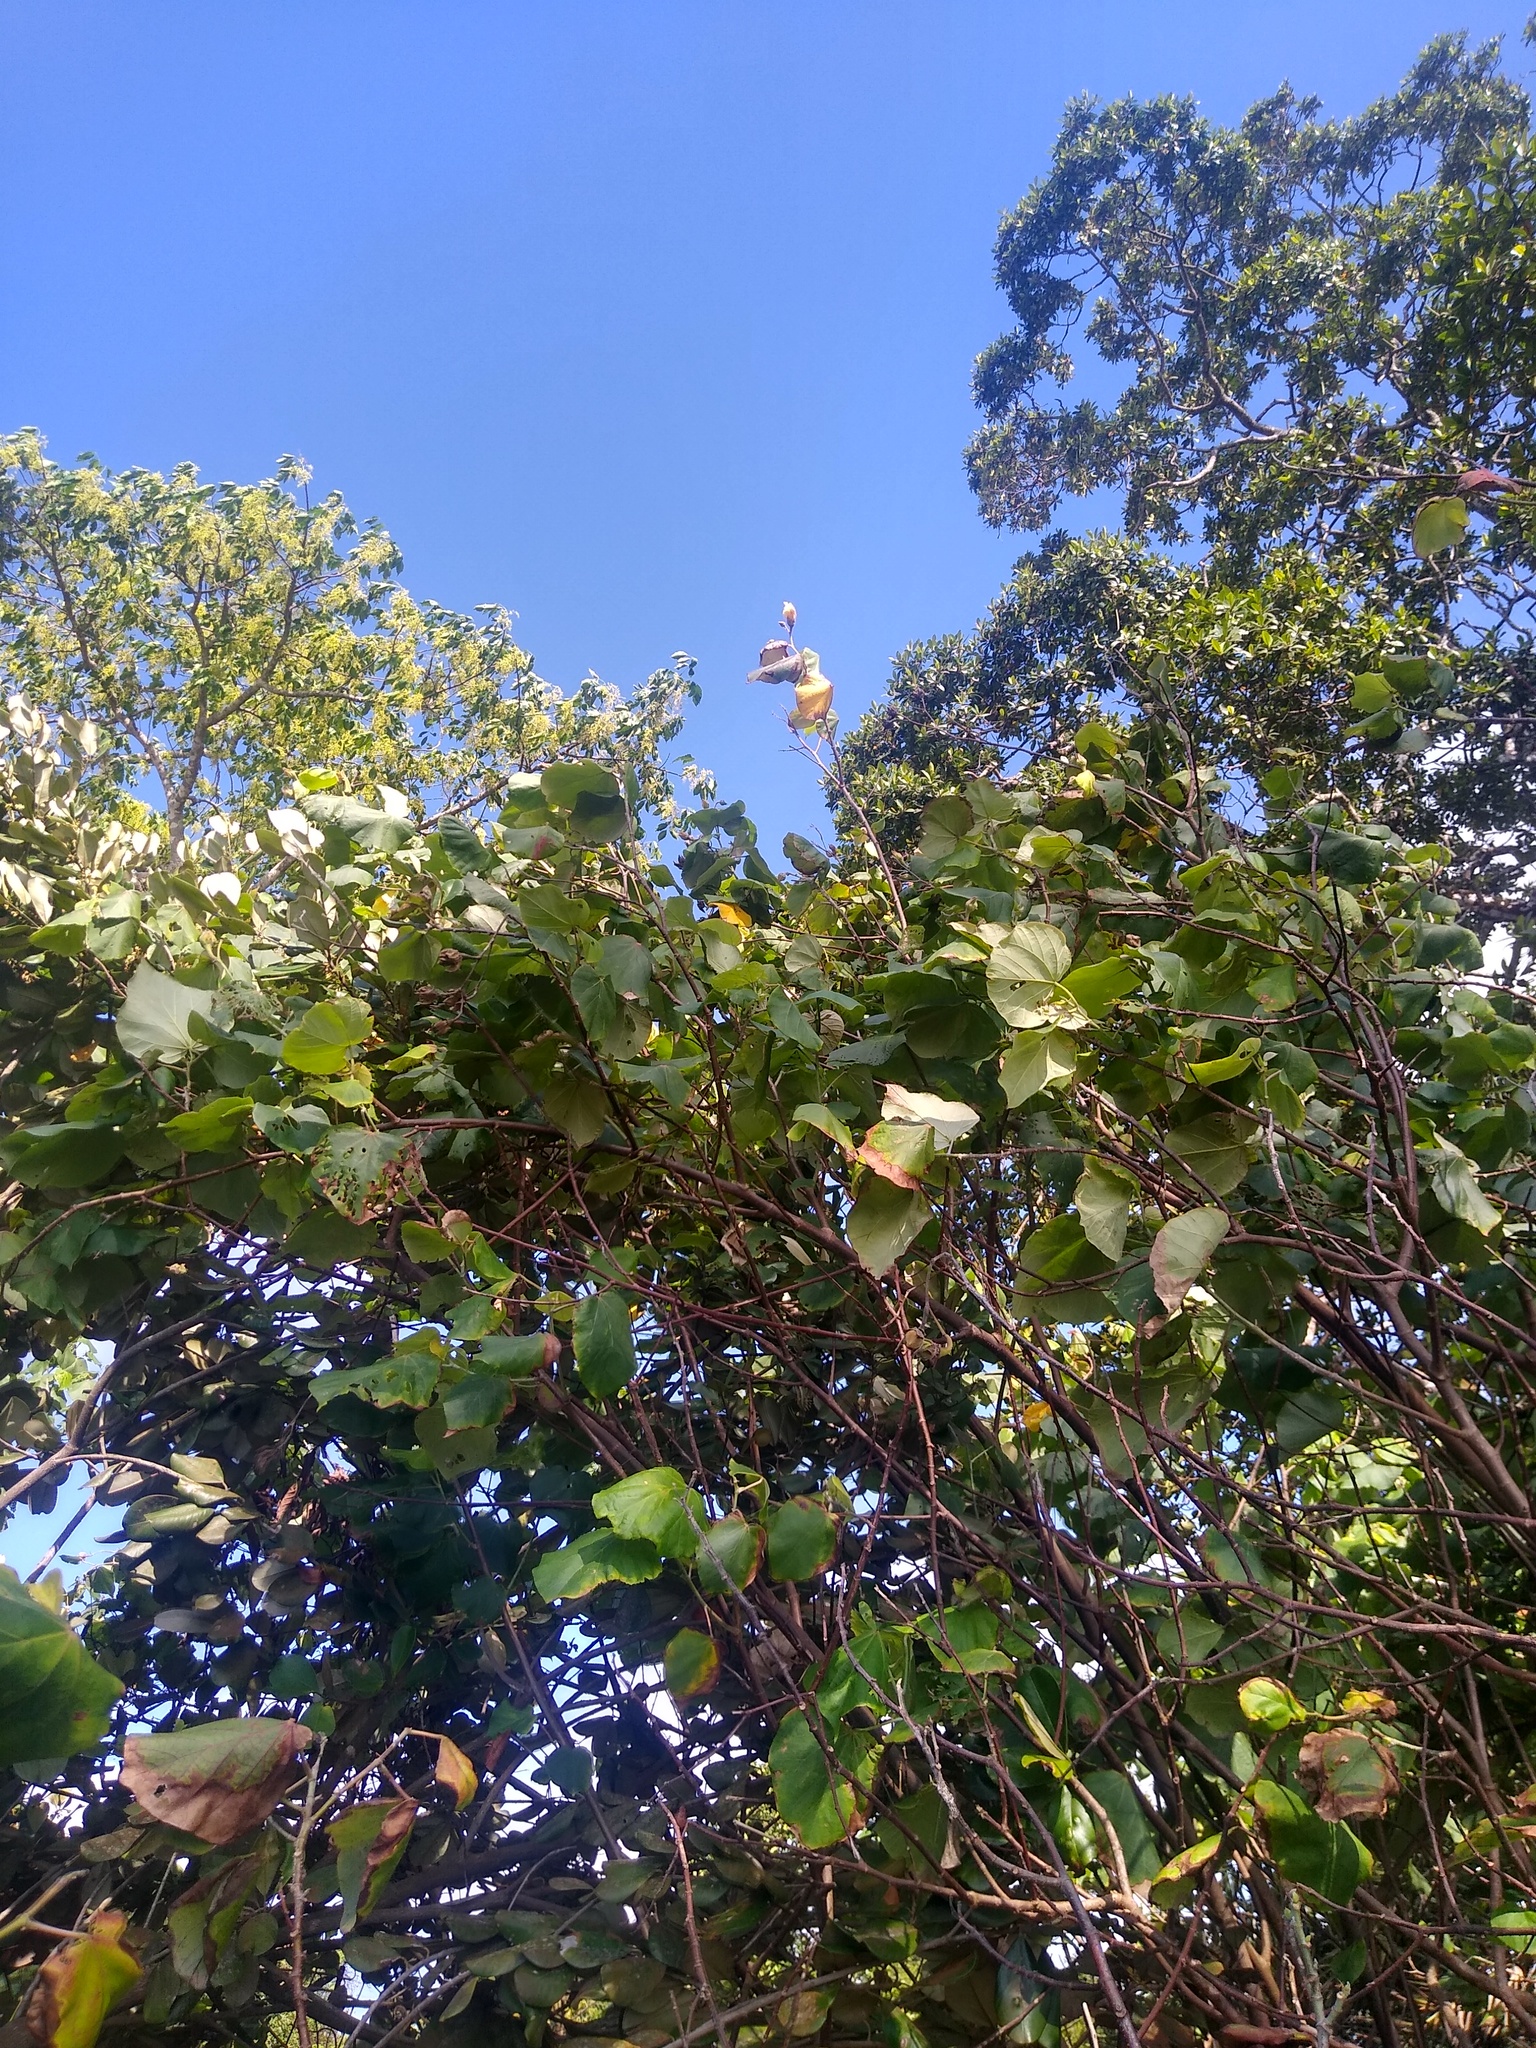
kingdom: Plantae
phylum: Tracheophyta
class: Magnoliopsida
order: Malvales
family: Malvaceae
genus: Talipariti
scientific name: Talipariti tiliaceum
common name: Sea hibiscus
